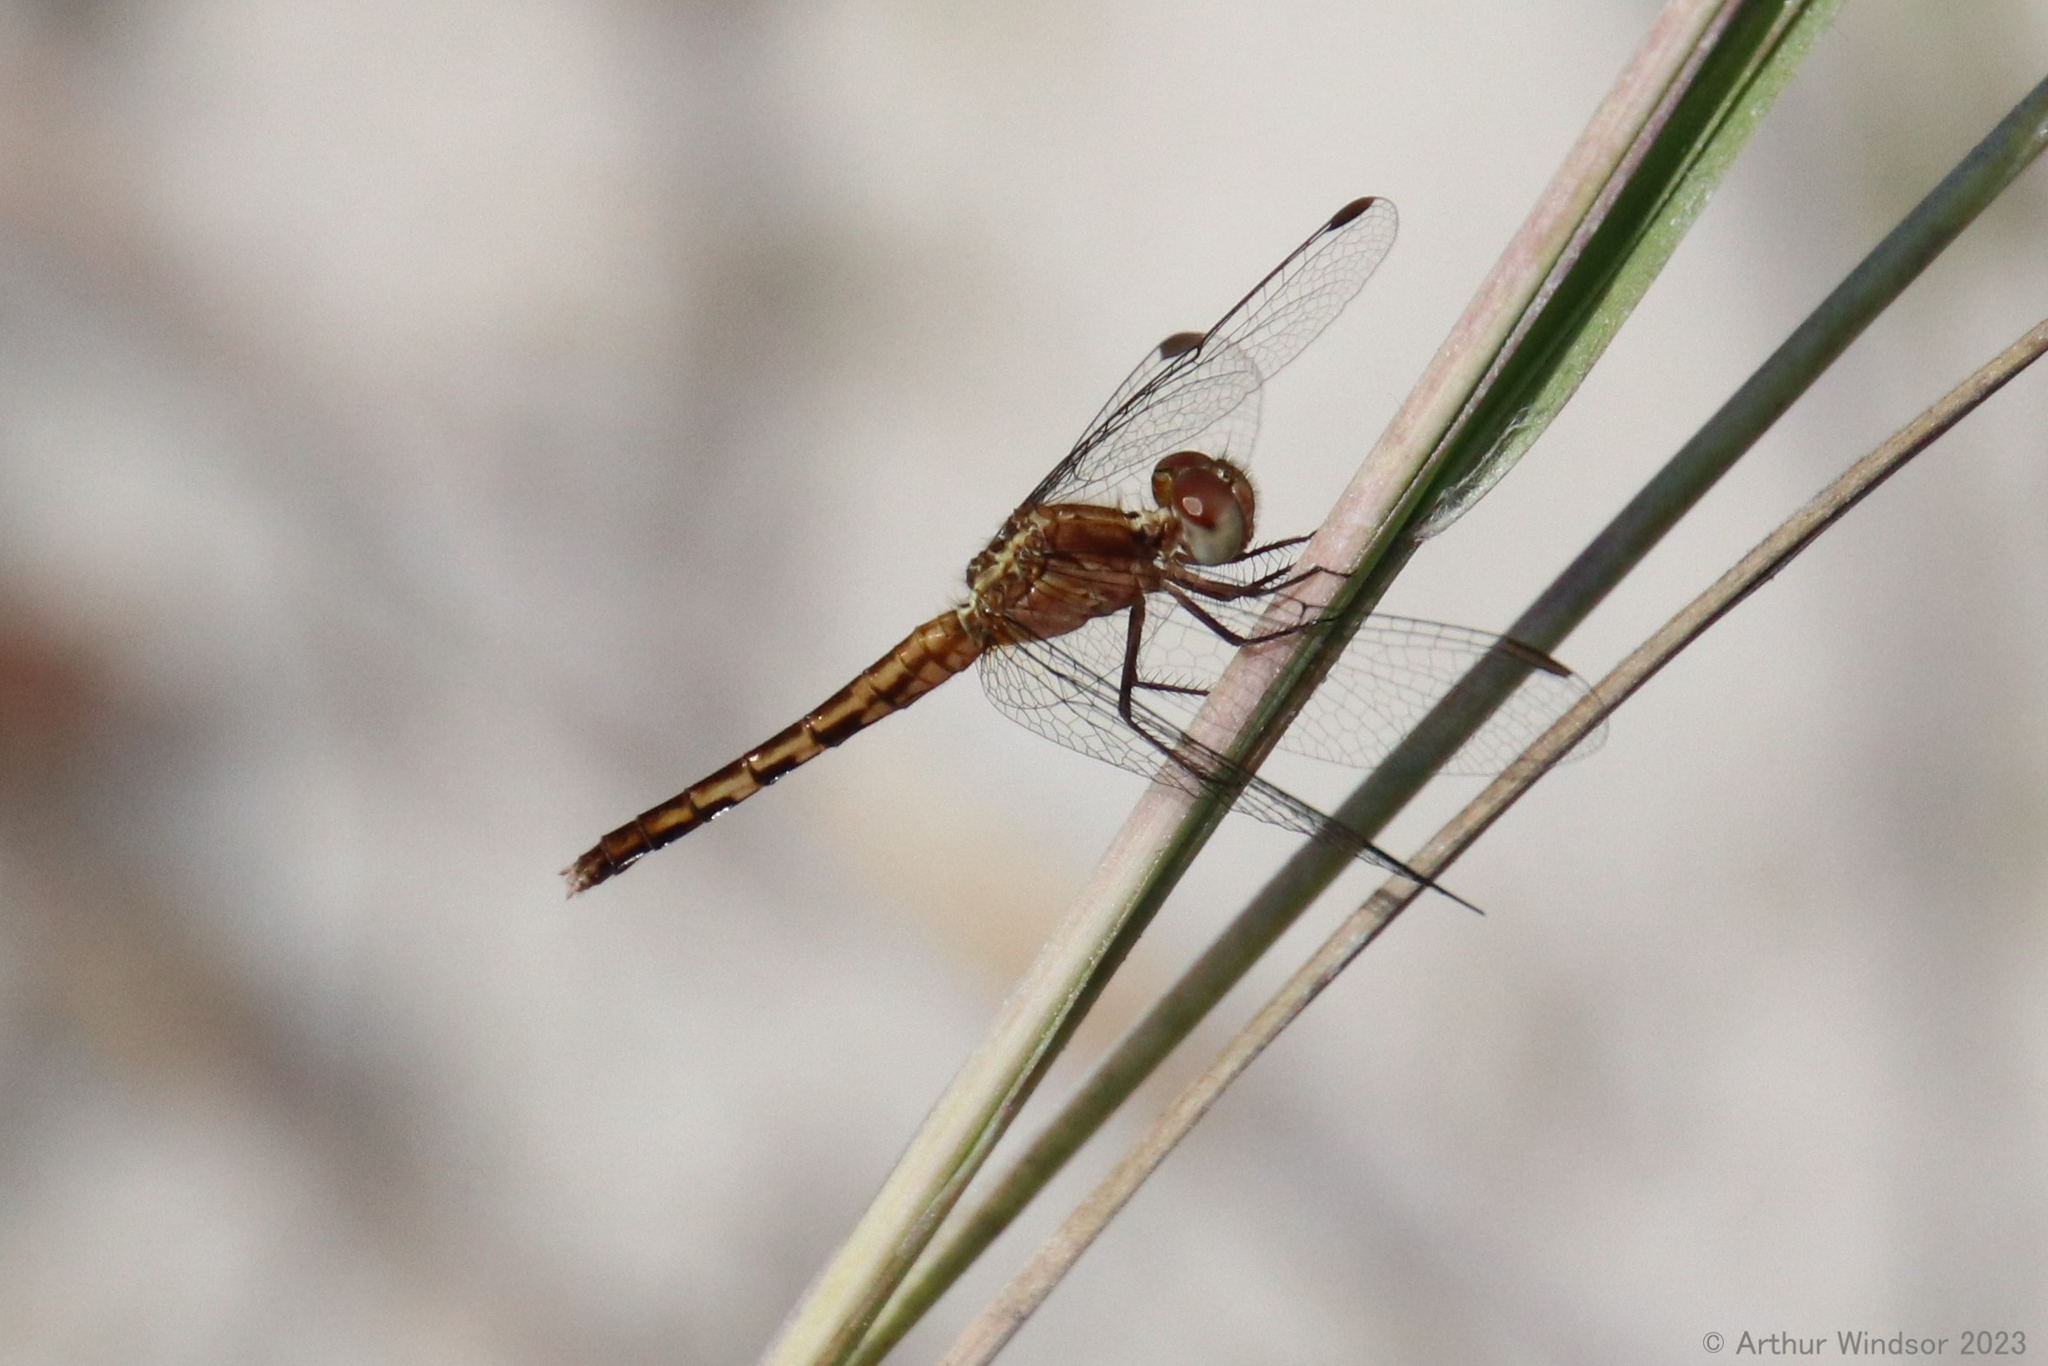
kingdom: Animalia
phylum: Arthropoda
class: Insecta
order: Odonata
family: Libellulidae
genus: Erythrodiplax
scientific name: Erythrodiplax minuscula
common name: Little blue dragonlet
